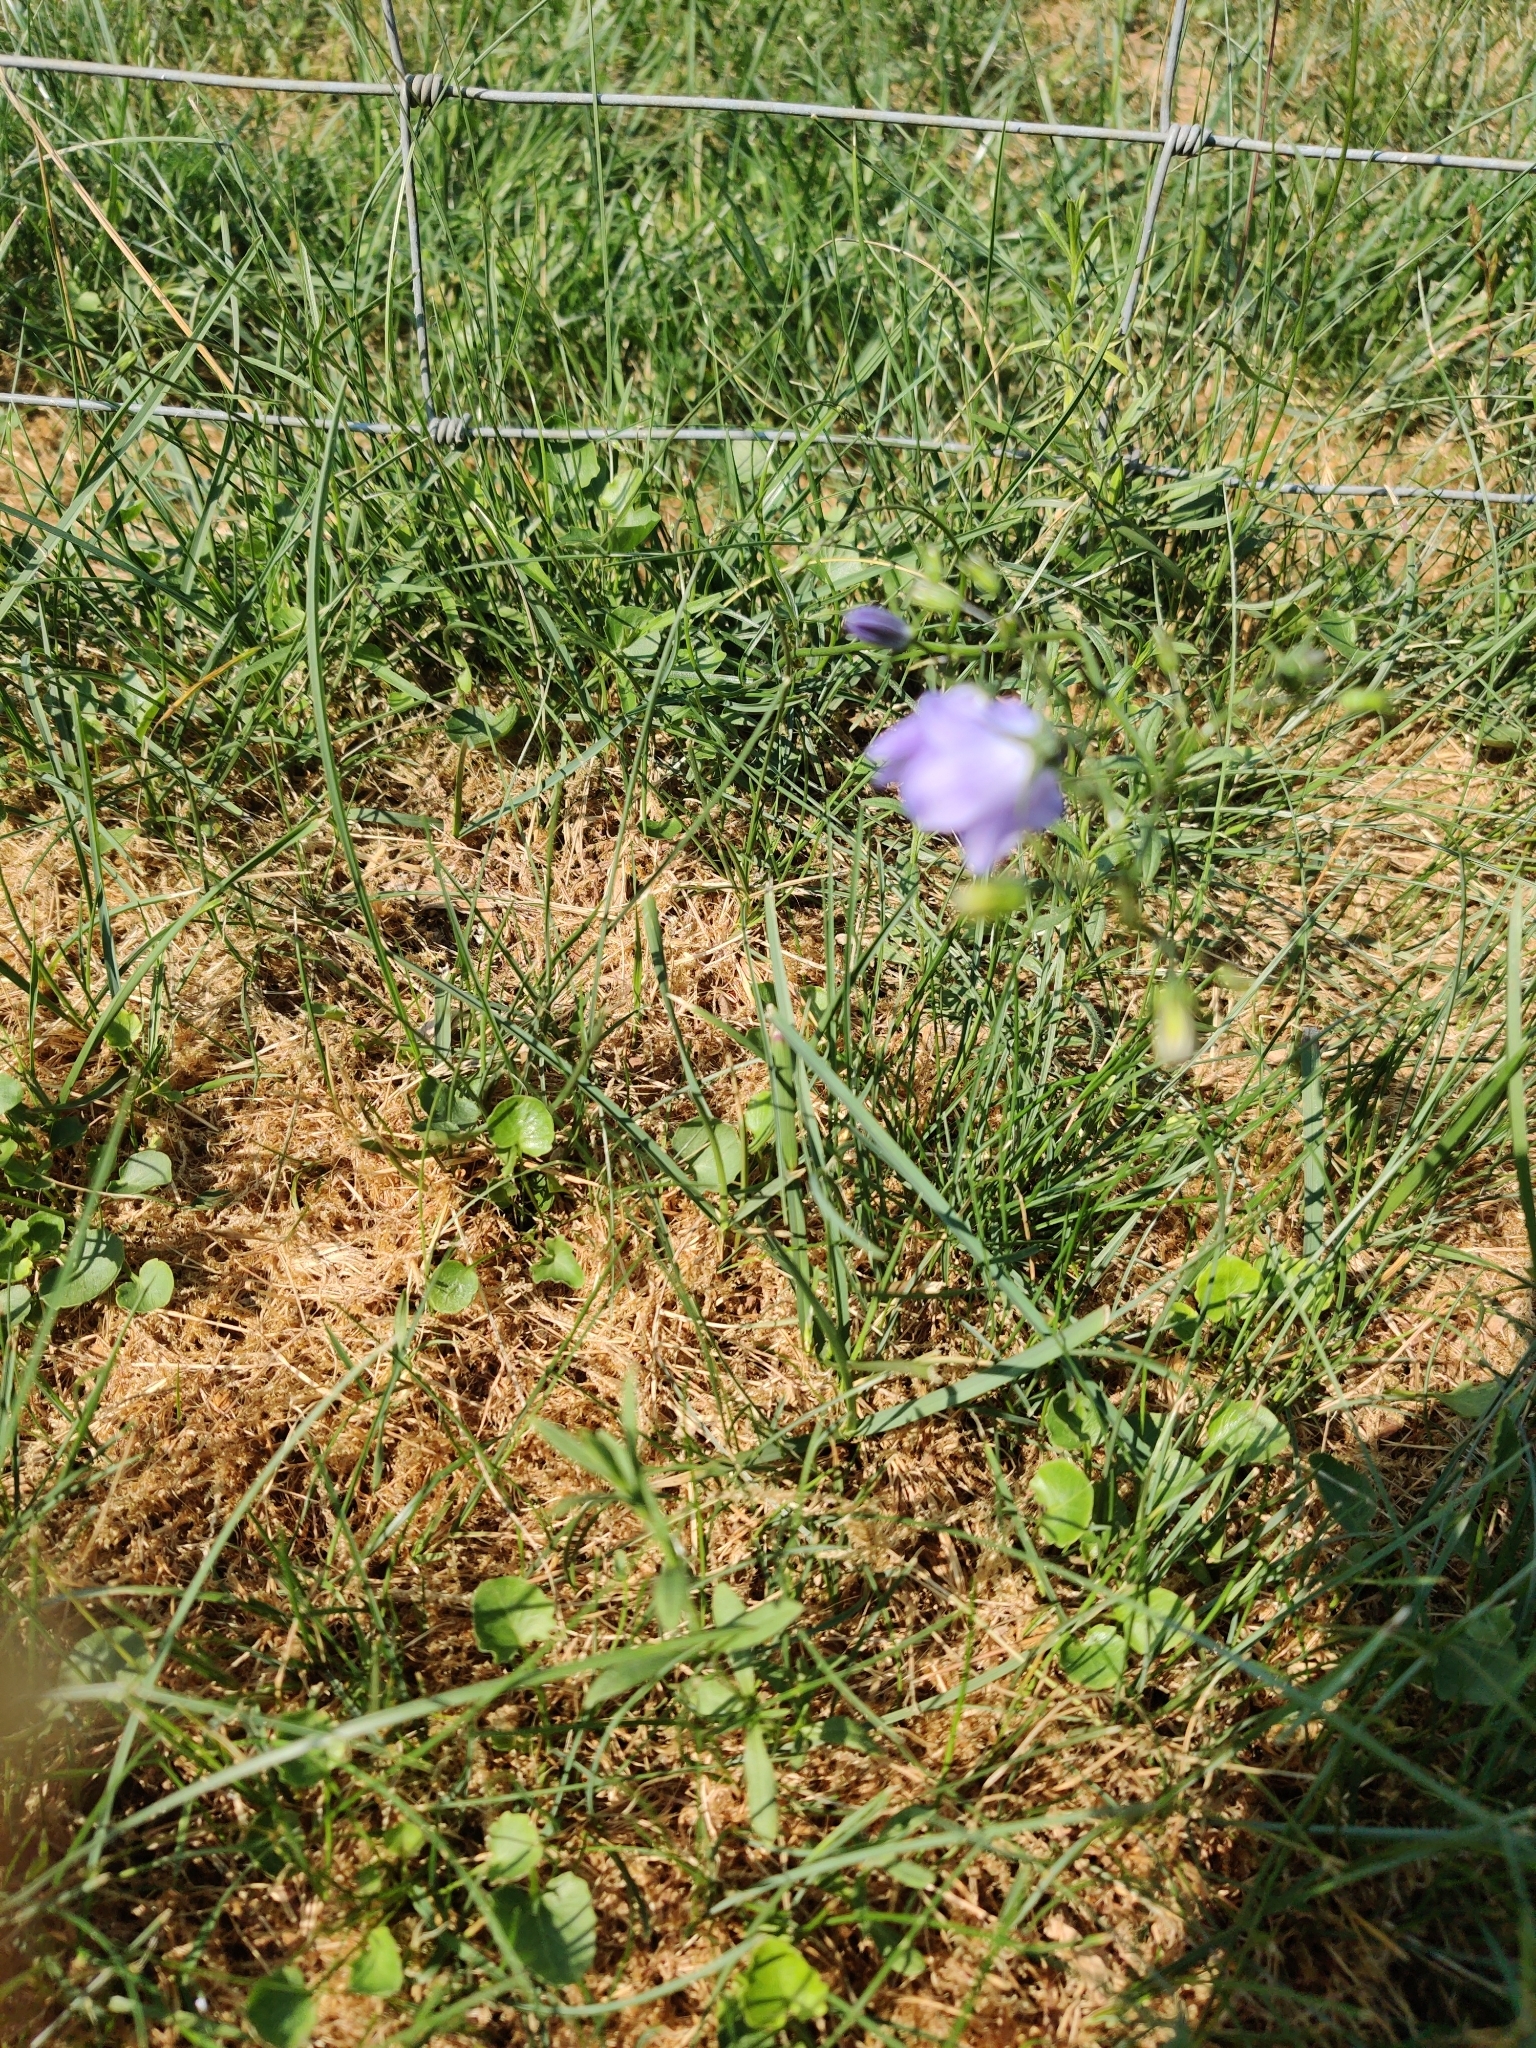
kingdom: Plantae
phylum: Tracheophyta
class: Magnoliopsida
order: Asterales
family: Campanulaceae
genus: Campanula
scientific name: Campanula rotundifolia
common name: Harebell
